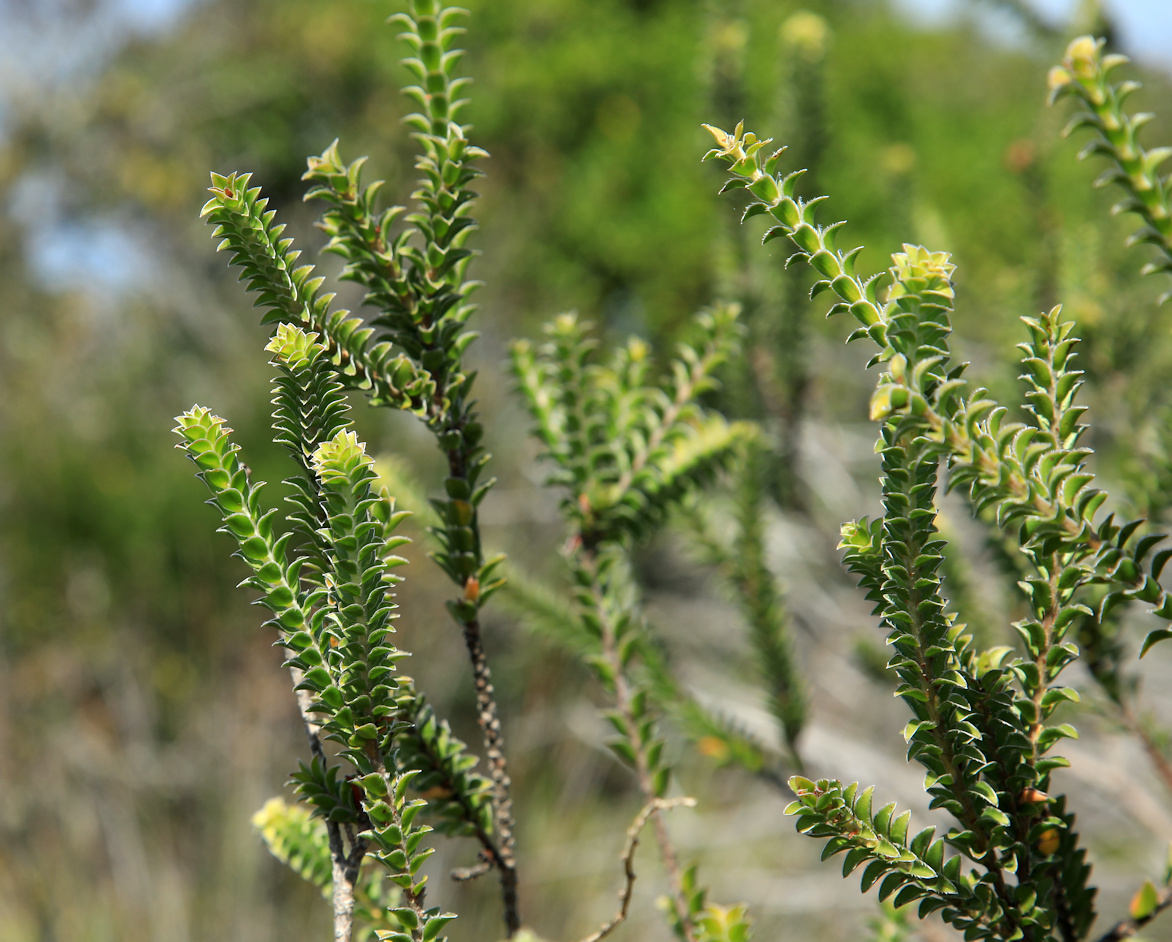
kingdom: Plantae
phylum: Tracheophyta
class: Magnoliopsida
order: Malvales
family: Thymelaeaceae
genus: Struthiola
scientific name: Struthiola argentea
